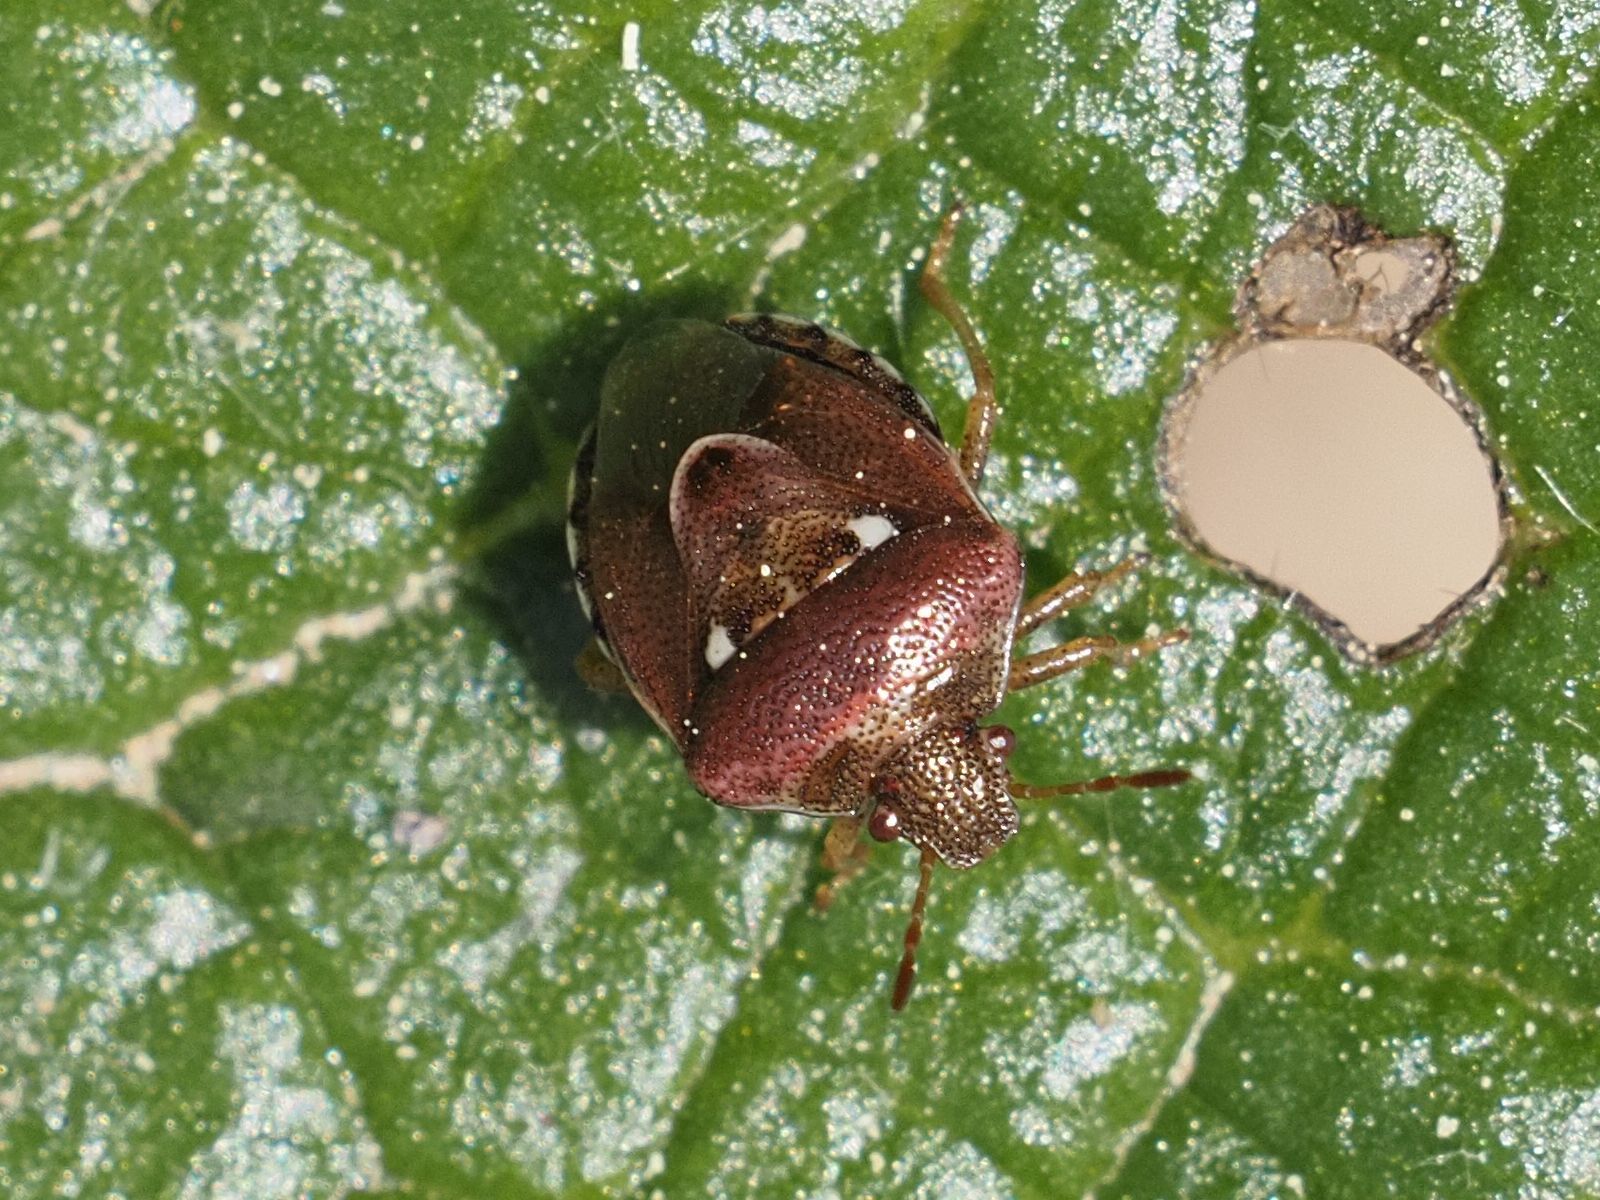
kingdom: Animalia
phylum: Arthropoda
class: Insecta
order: Hemiptera
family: Pentatomidae
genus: Stagonomus
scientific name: Stagonomus bipunctatus
